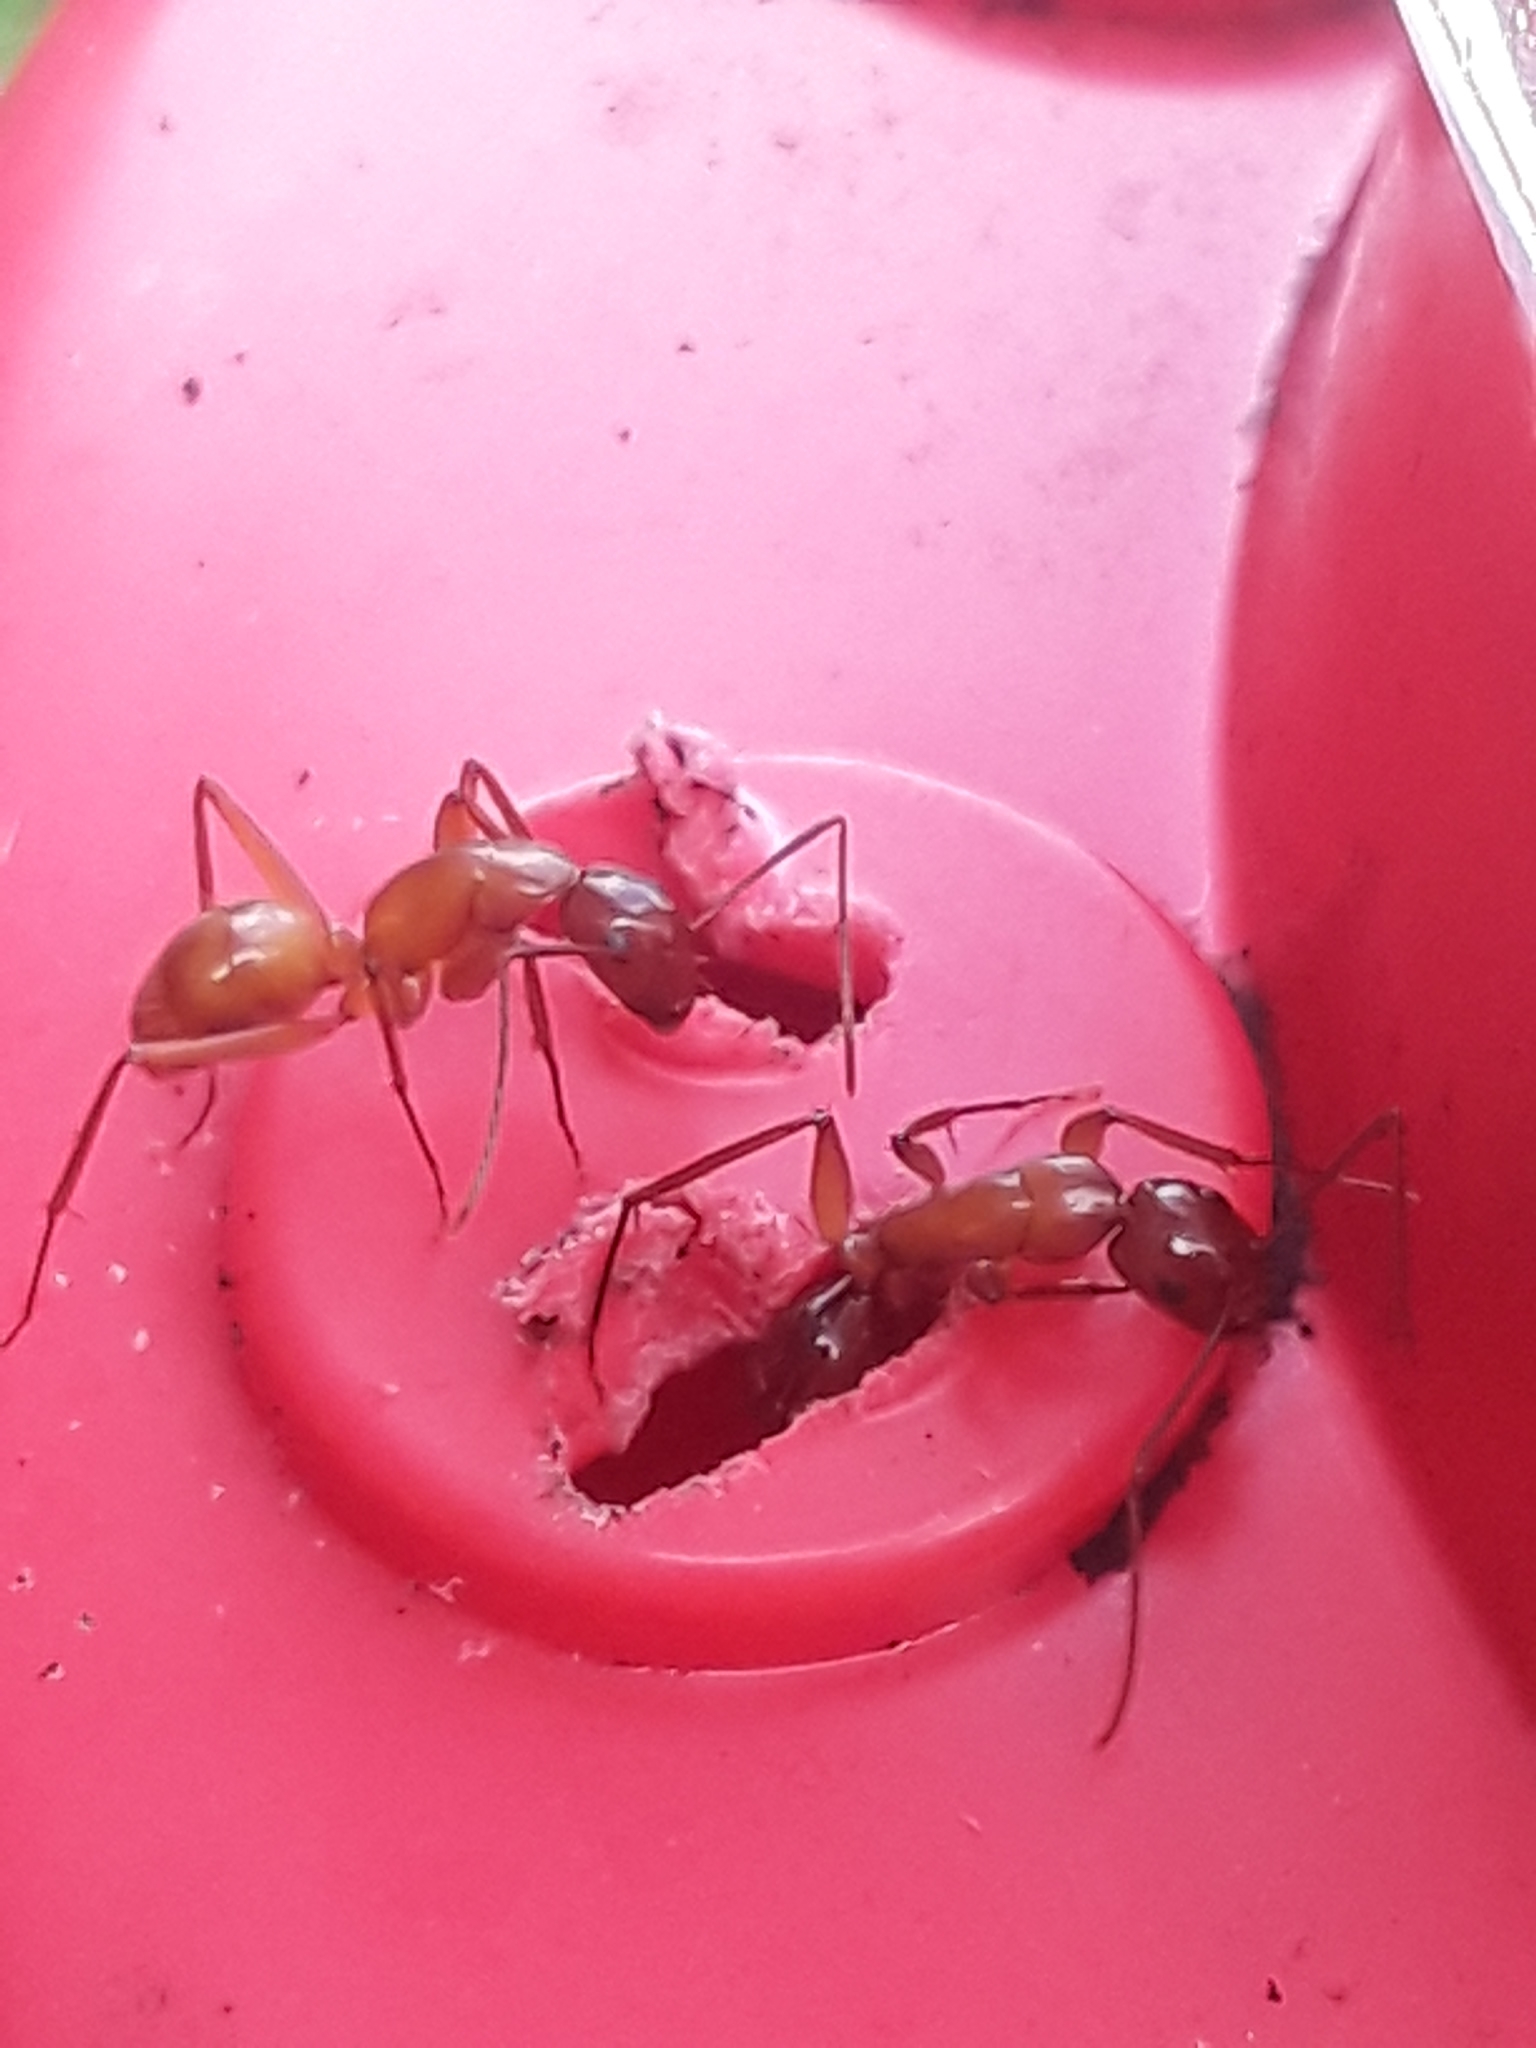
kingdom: Animalia
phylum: Arthropoda
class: Insecta
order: Hymenoptera
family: Formicidae
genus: Camponotus
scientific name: Camponotus castaneus
